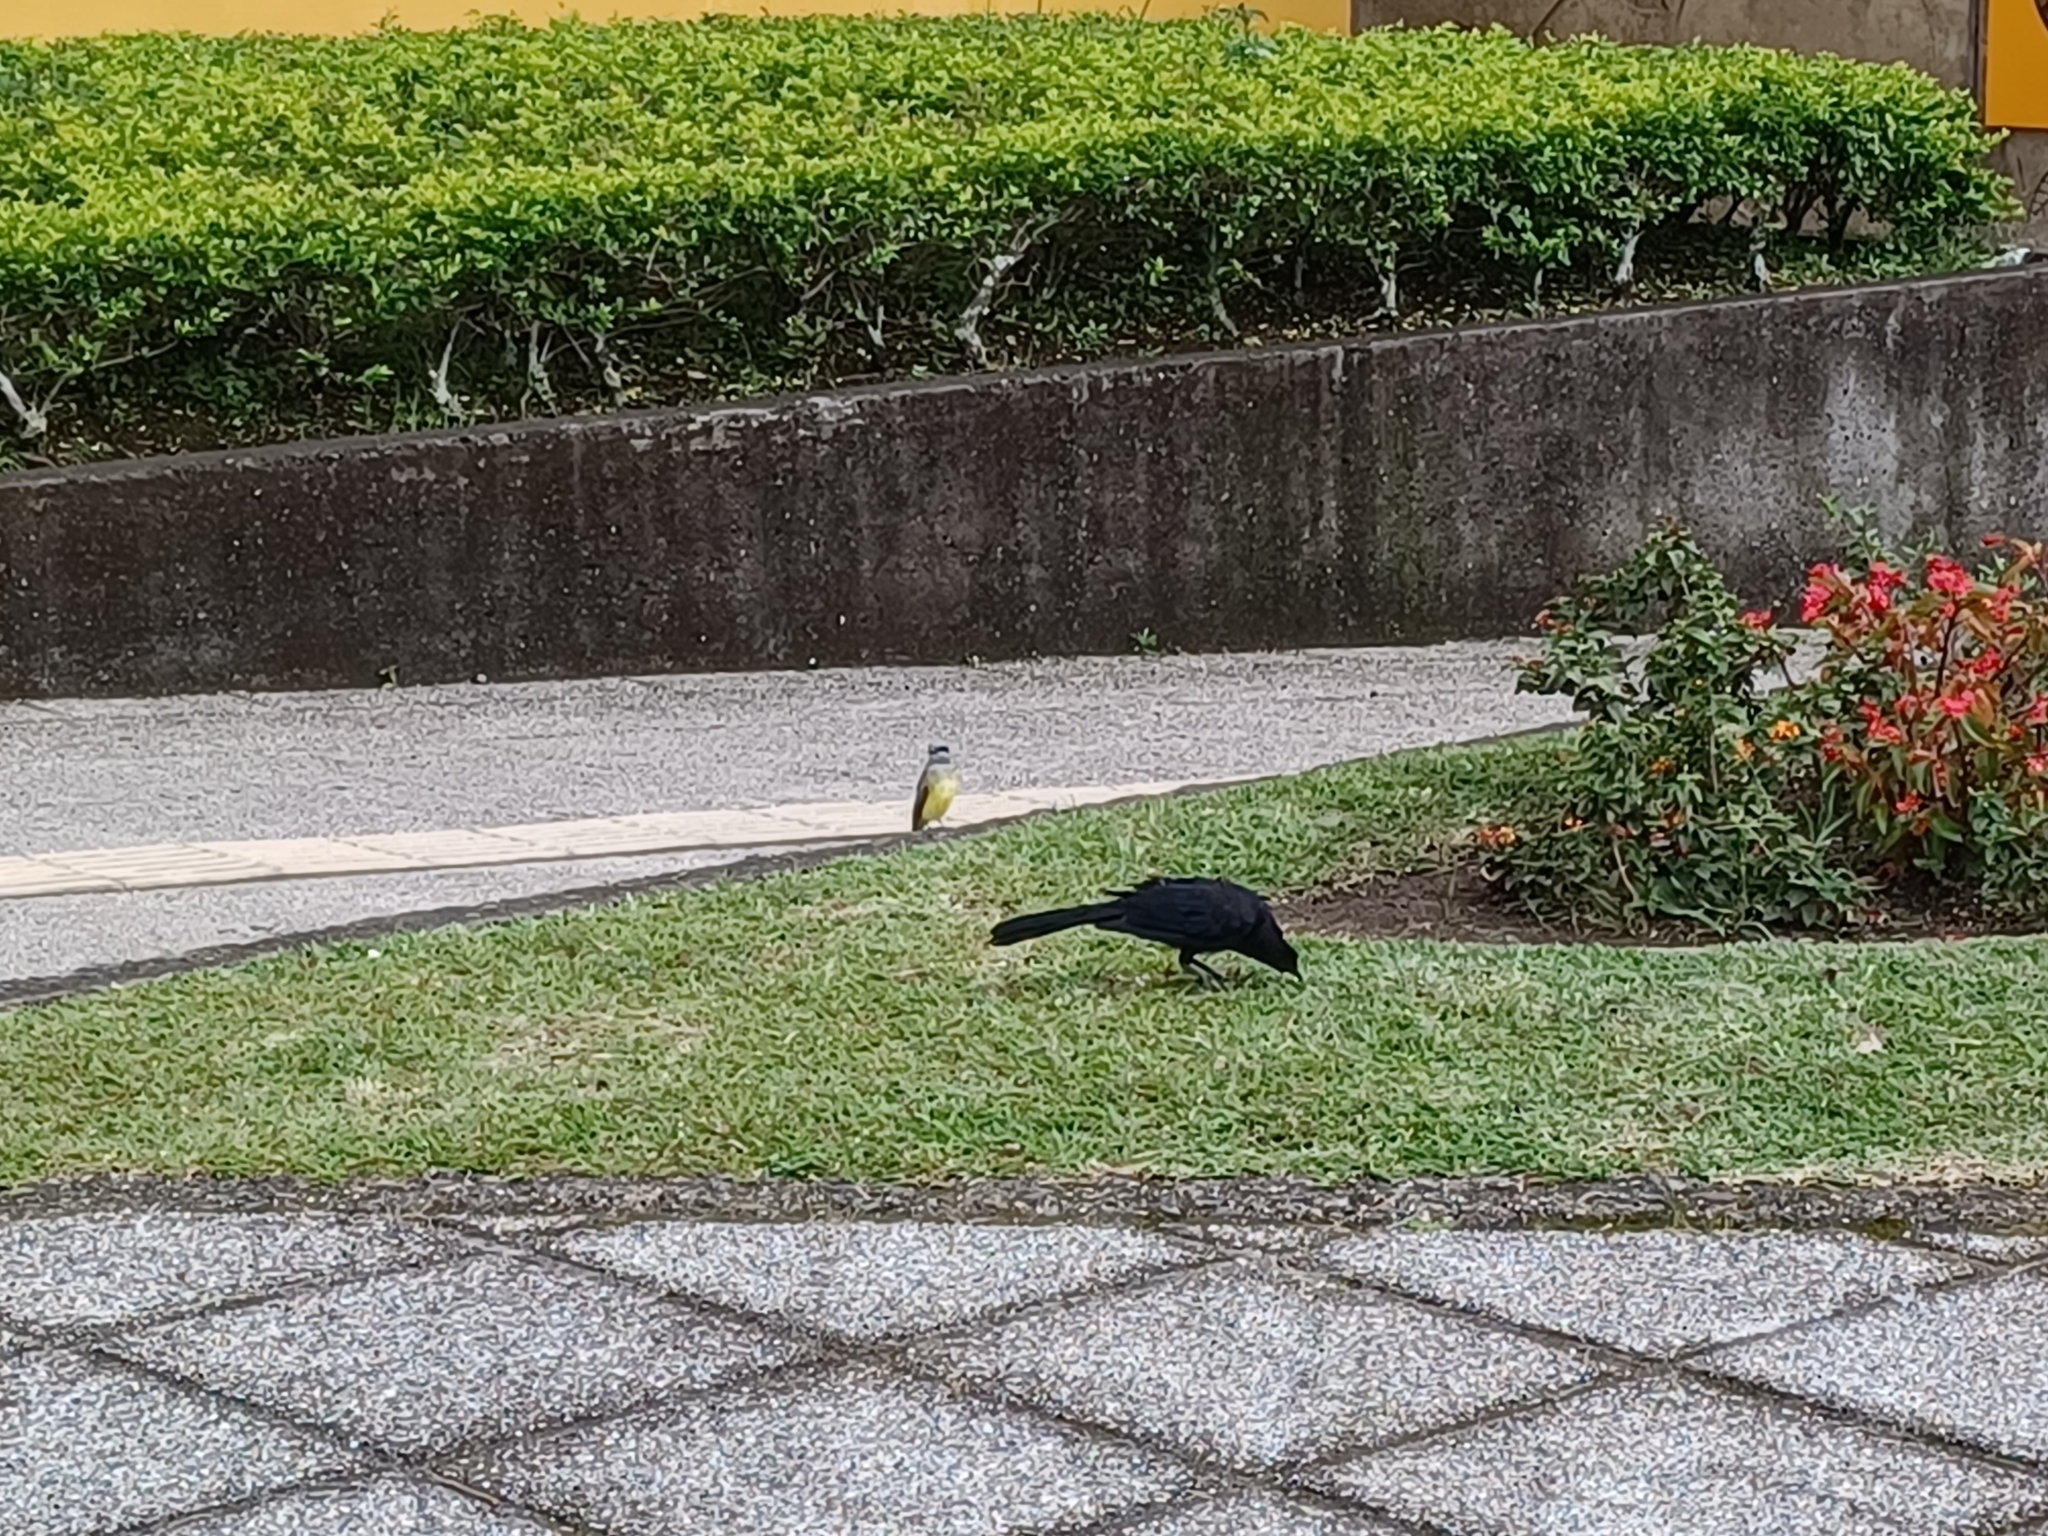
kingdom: Animalia
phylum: Chordata
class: Aves
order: Passeriformes
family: Icteridae
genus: Quiscalus
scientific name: Quiscalus mexicanus
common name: Great-tailed grackle
